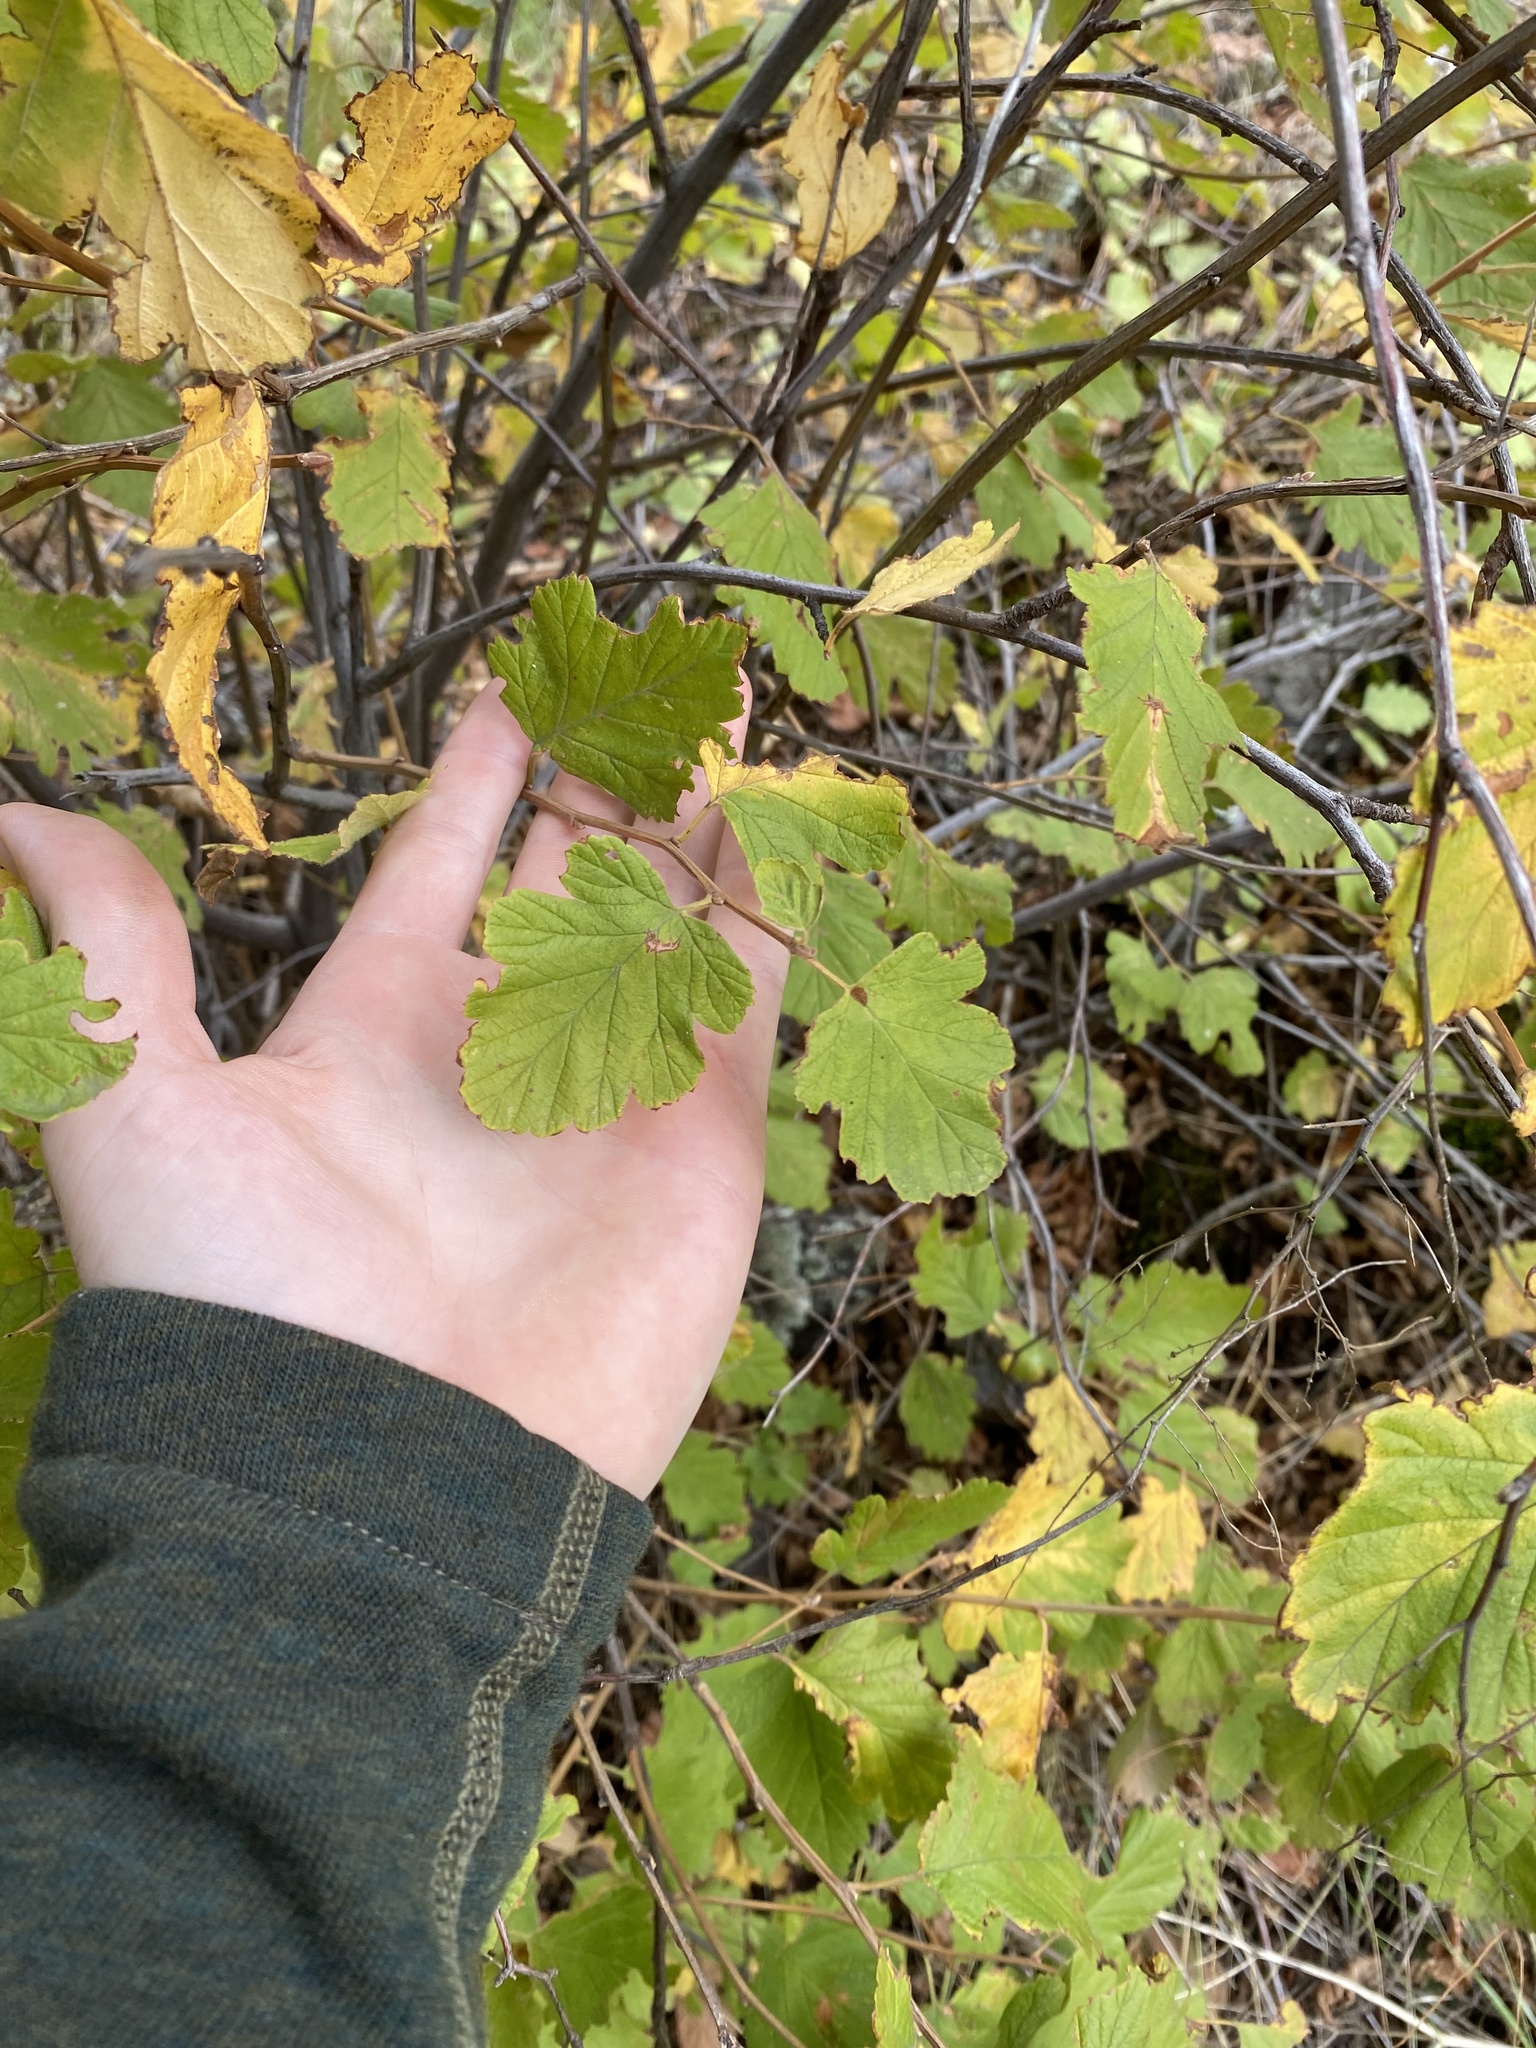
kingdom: Plantae
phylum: Tracheophyta
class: Magnoliopsida
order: Rosales
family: Rosaceae
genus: Holodiscus
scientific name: Holodiscus discolor
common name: Oceanspray
